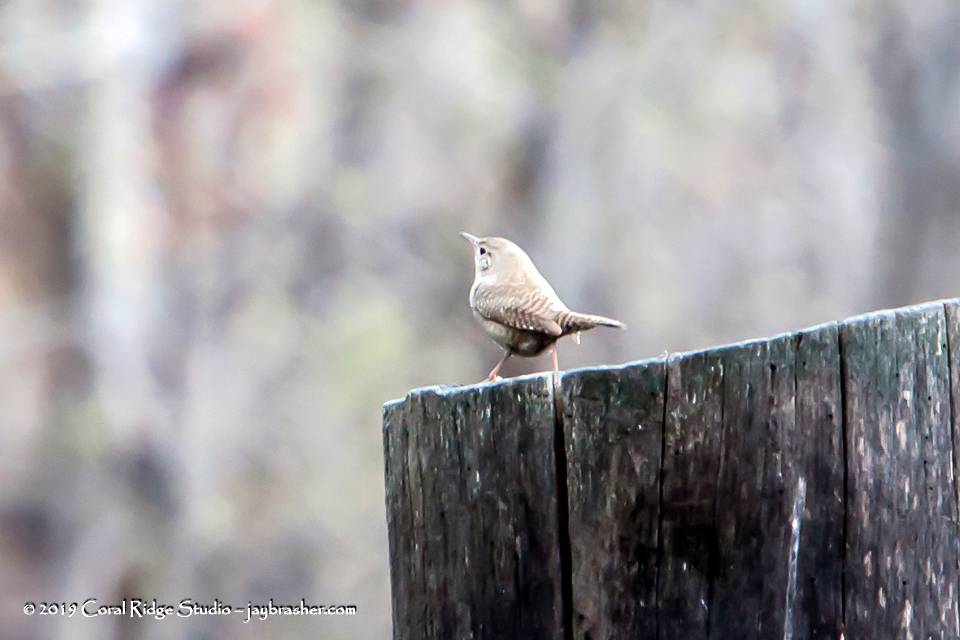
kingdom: Animalia
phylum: Chordata
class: Aves
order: Passeriformes
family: Troglodytidae
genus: Salpinctes
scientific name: Salpinctes obsoletus
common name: Rock wren
